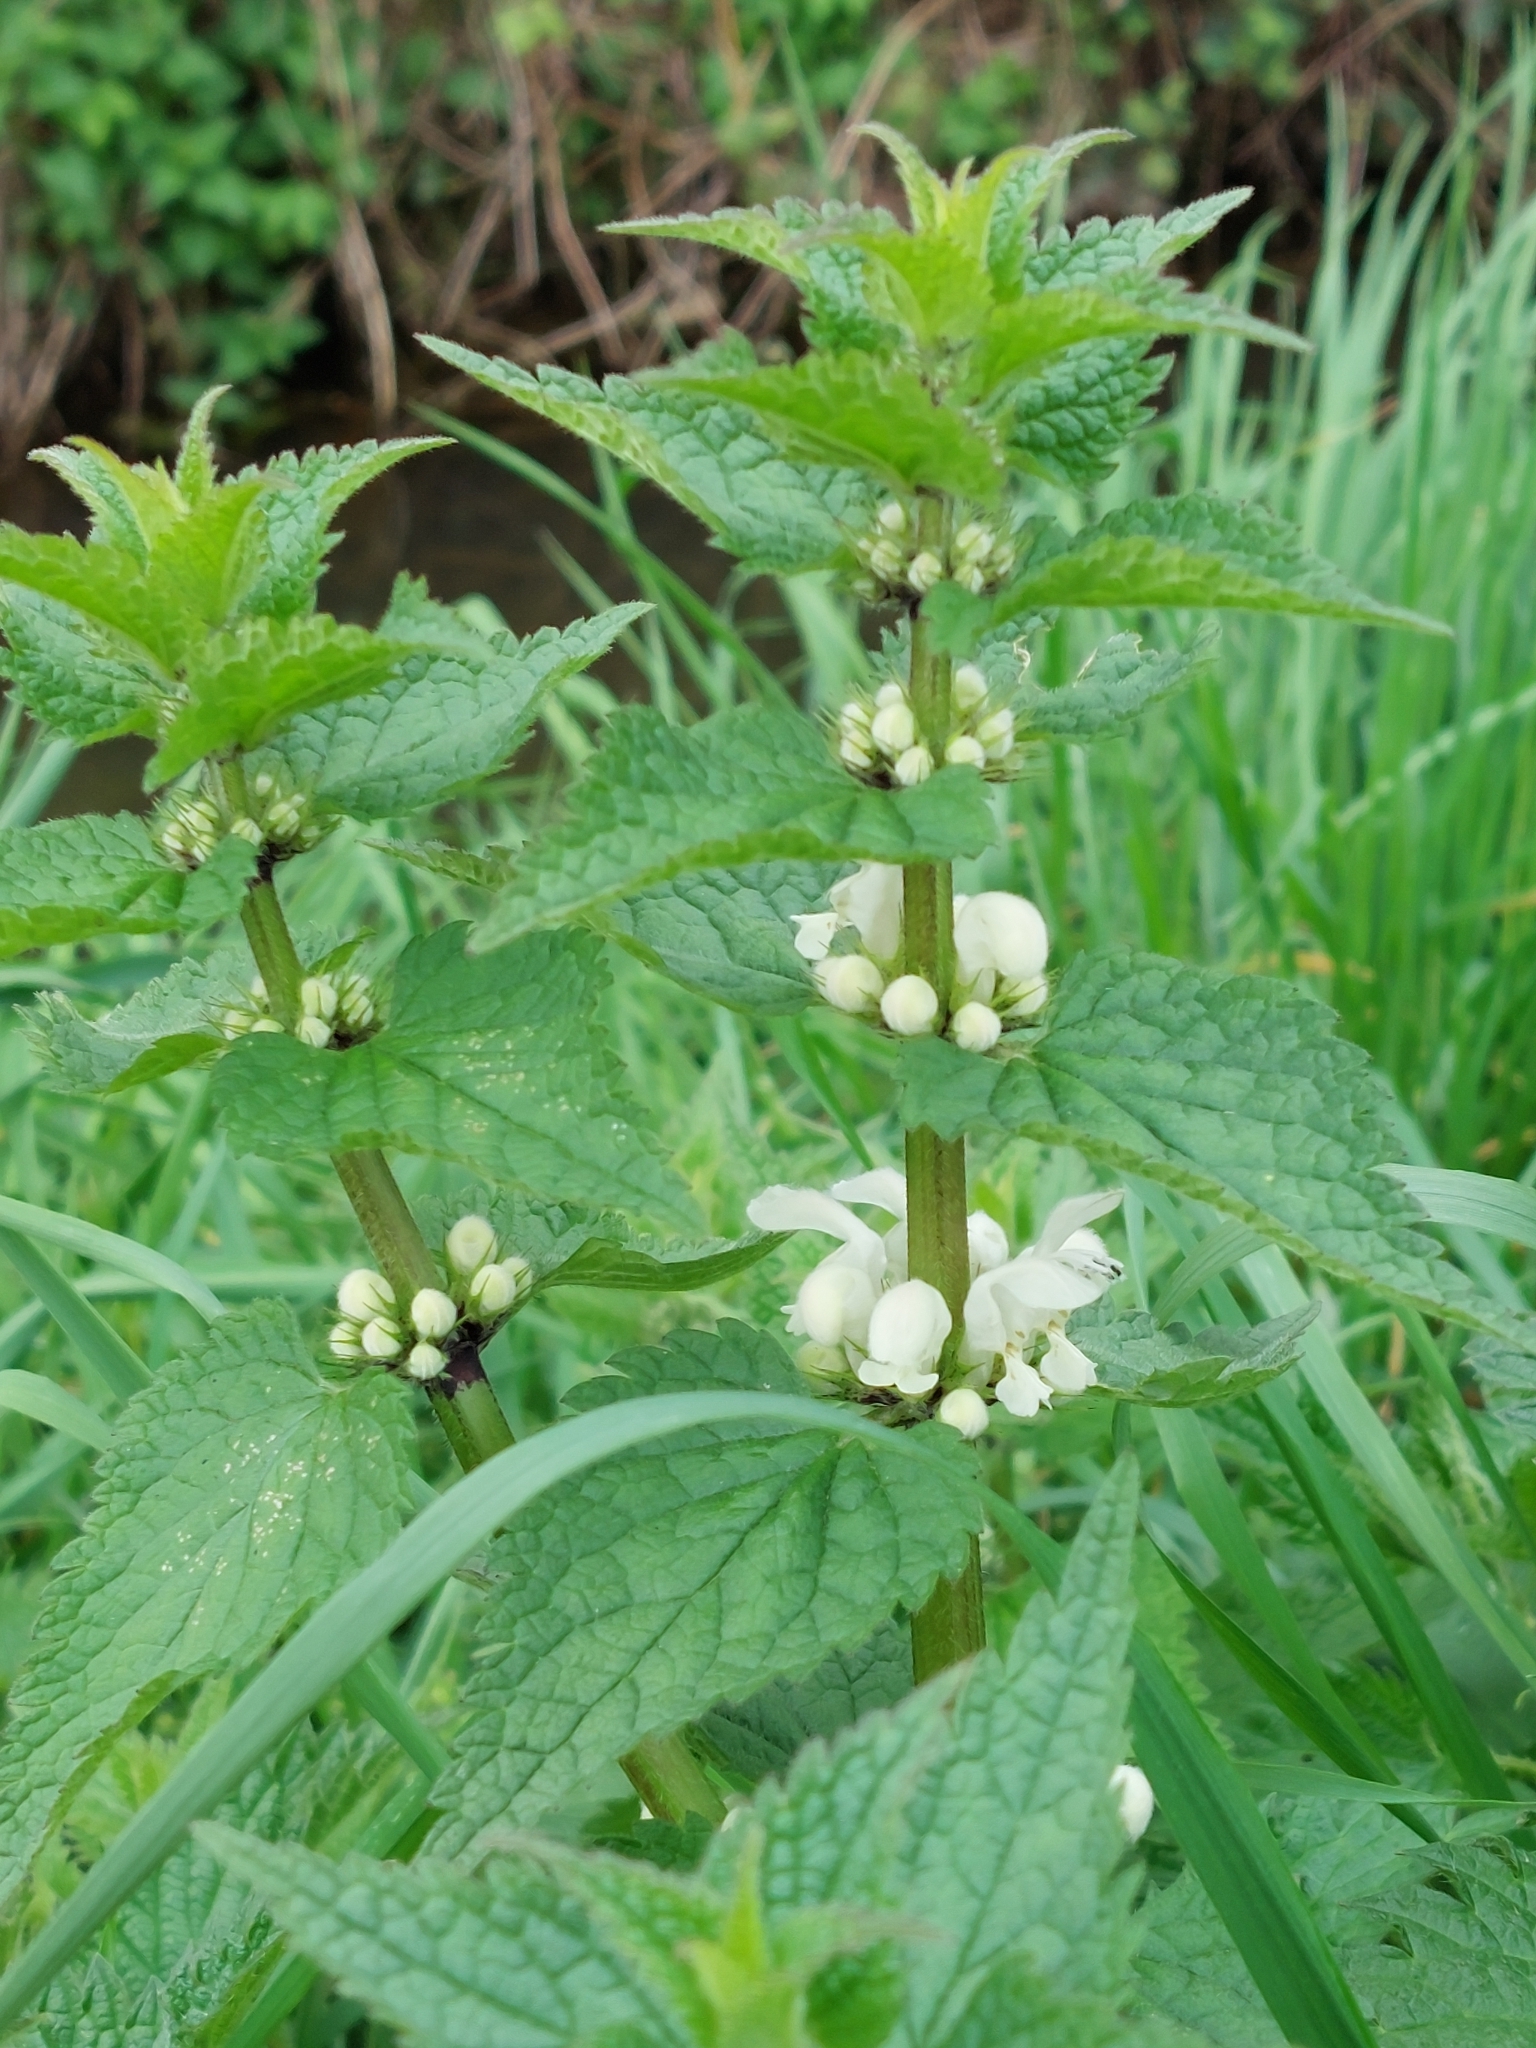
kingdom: Plantae
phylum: Tracheophyta
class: Magnoliopsida
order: Lamiales
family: Lamiaceae
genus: Lamium
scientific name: Lamium album
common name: White dead-nettle
